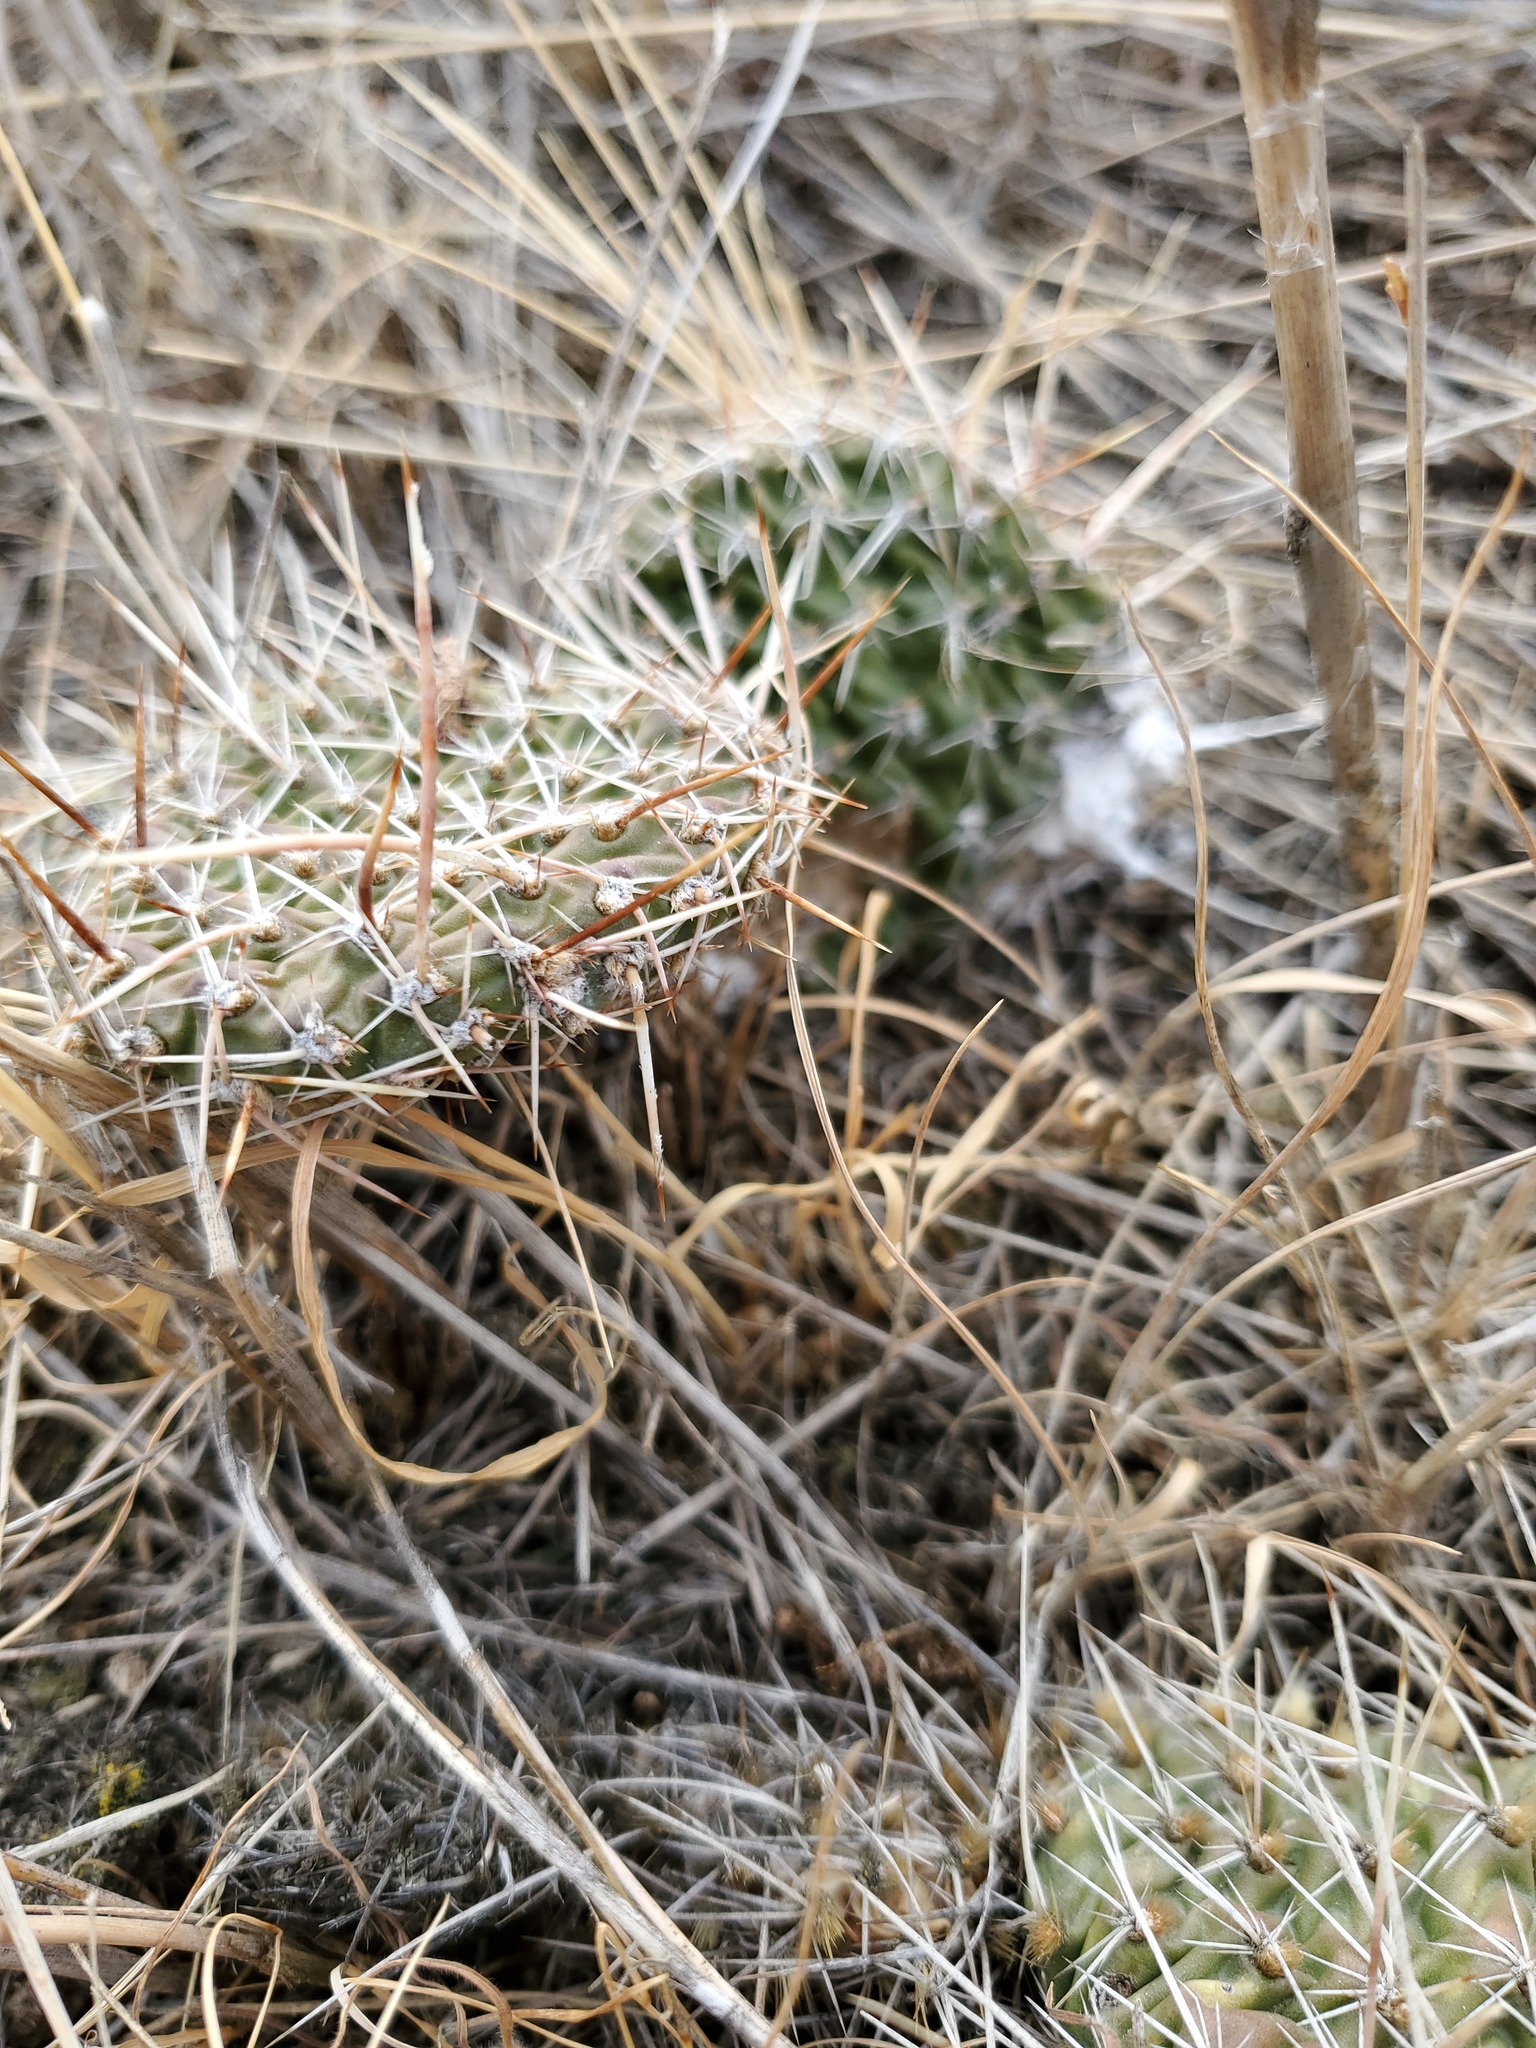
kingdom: Plantae
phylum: Tracheophyta
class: Magnoliopsida
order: Caryophyllales
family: Cactaceae
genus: Opuntia
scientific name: Opuntia polyacantha
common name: Plains prickly-pear
